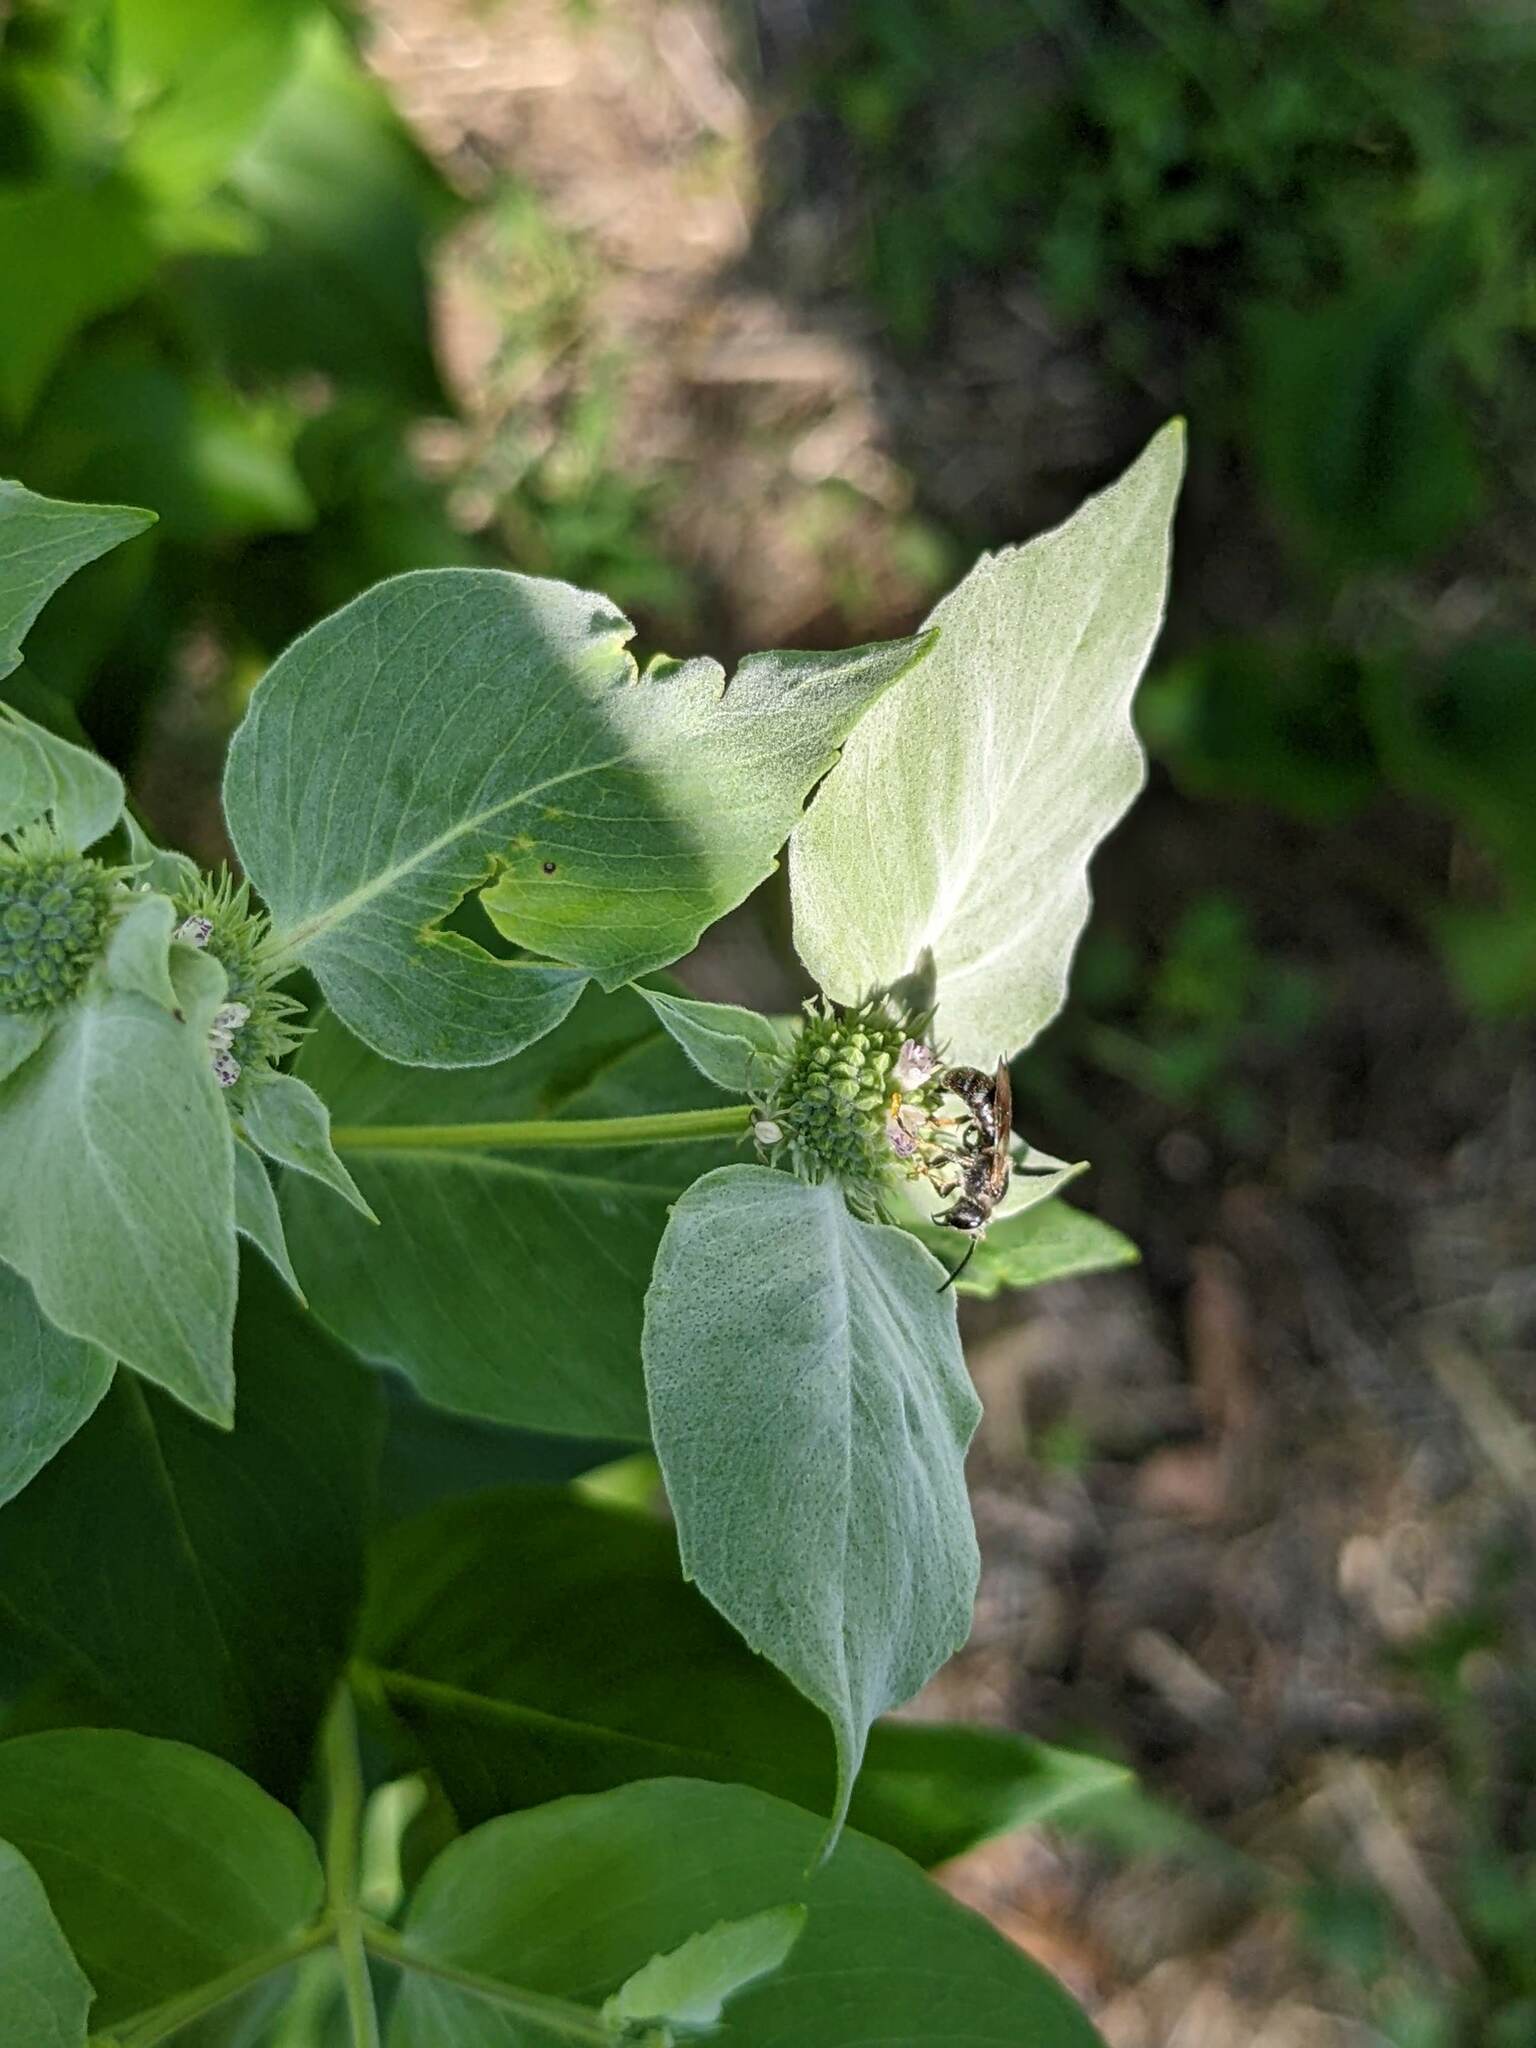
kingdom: Animalia
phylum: Arthropoda
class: Insecta
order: Hymenoptera
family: Halictidae
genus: Lasioglossum
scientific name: Lasioglossum acuminatum
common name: Pointed sweat bee
